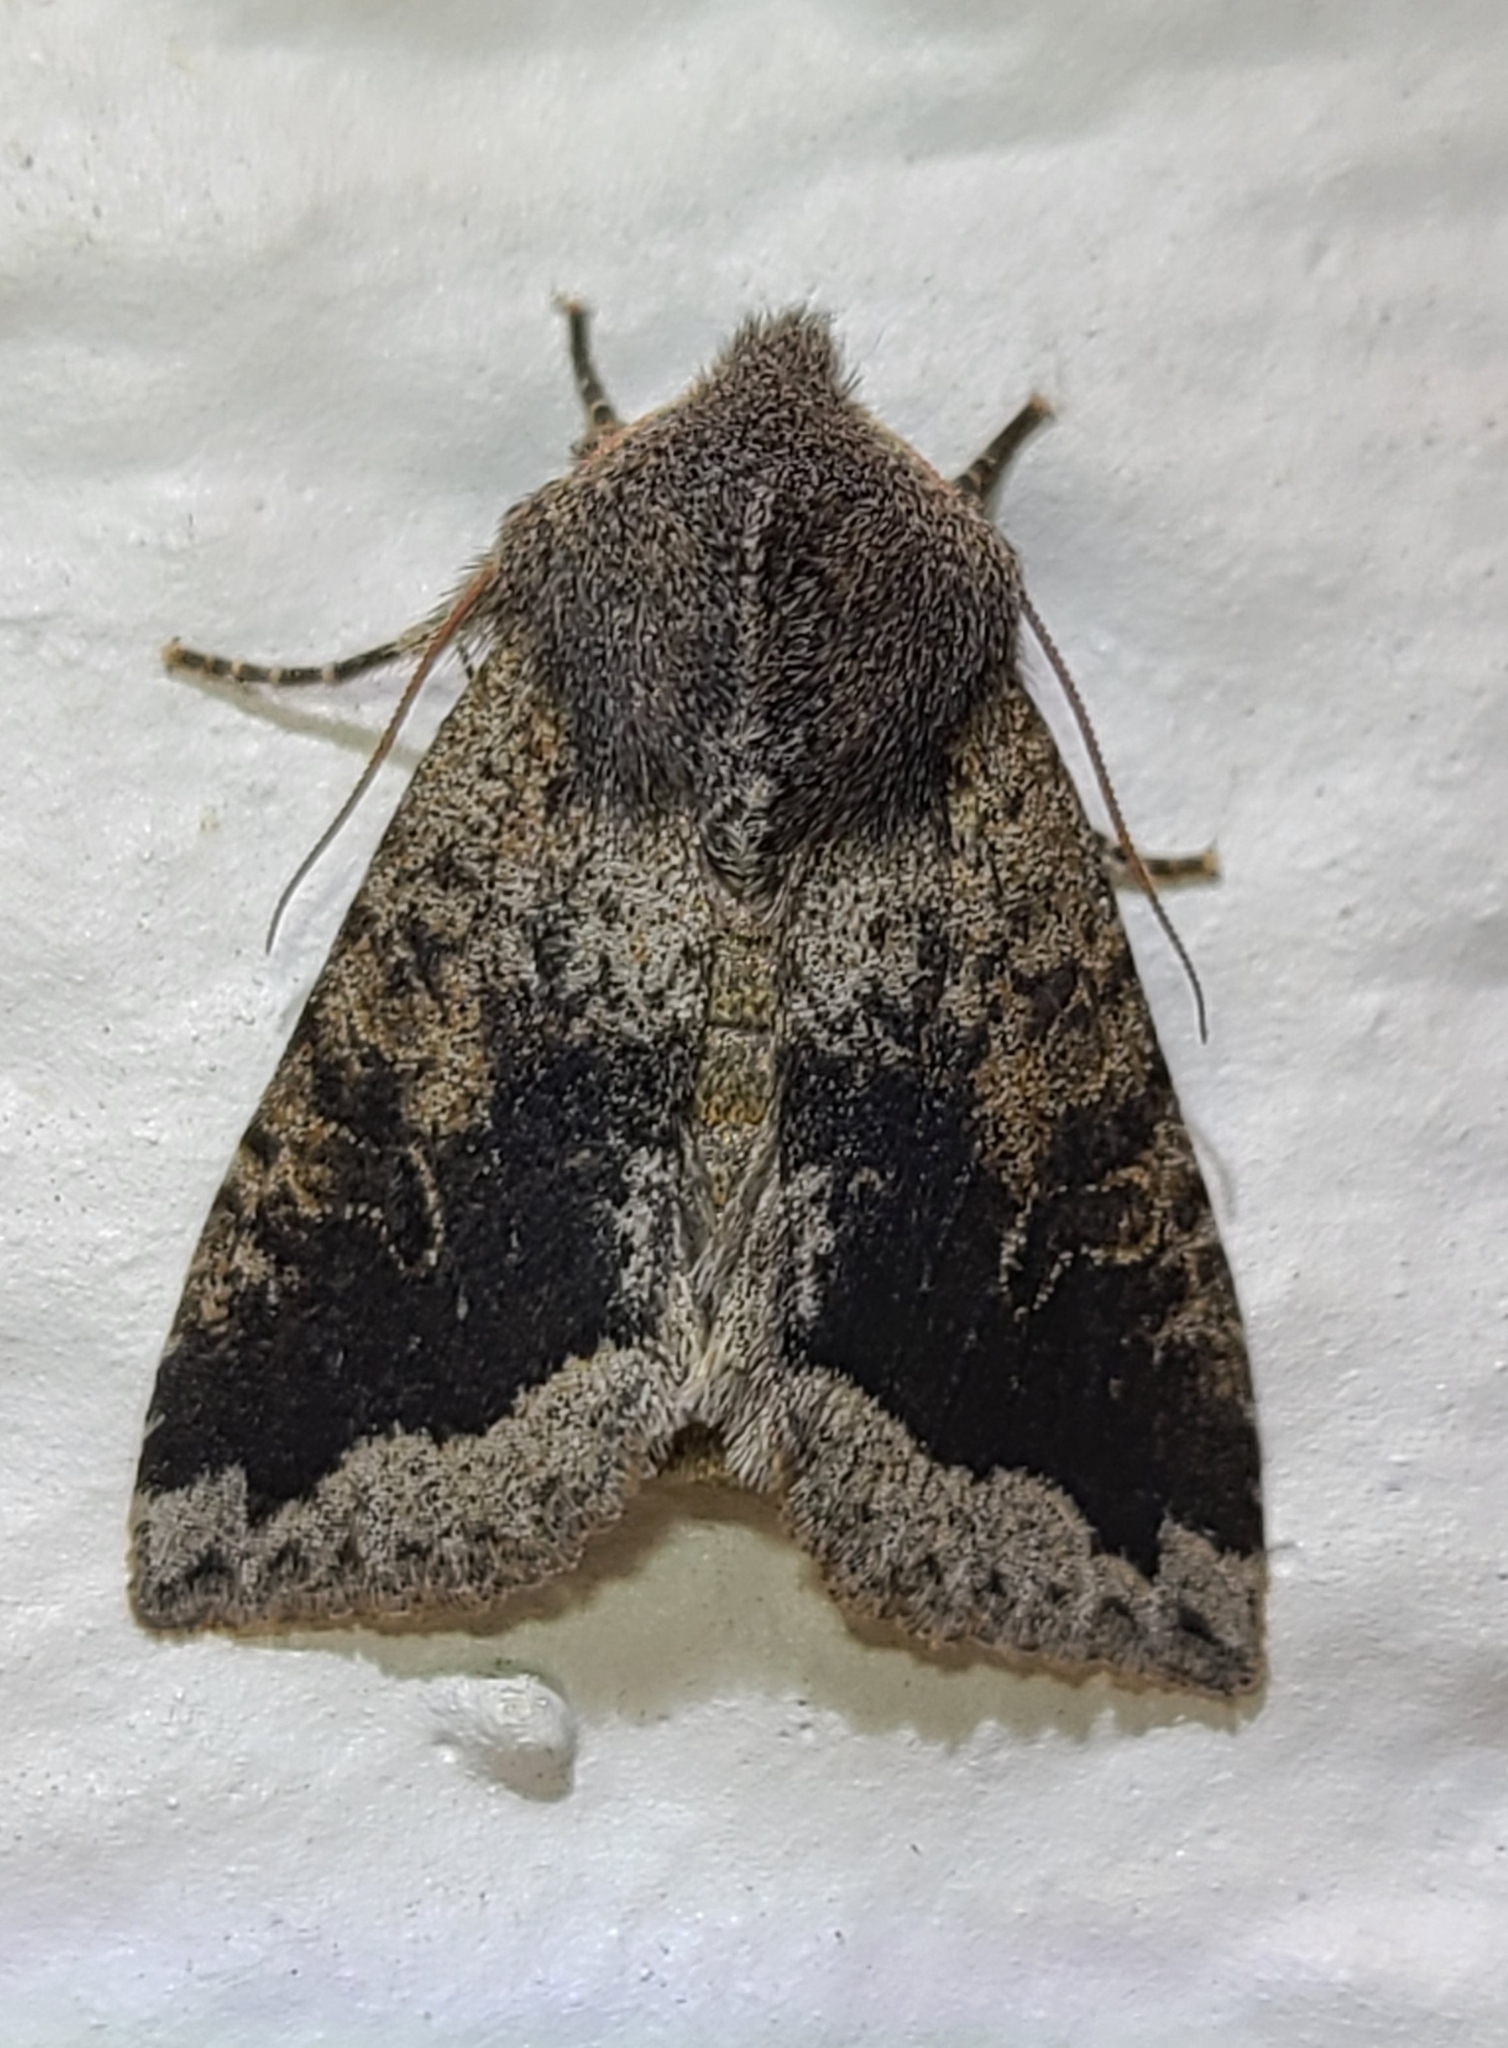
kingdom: Animalia
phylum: Arthropoda
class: Insecta
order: Lepidoptera
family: Noctuidae
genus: Orthosia
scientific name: Orthosia erythrolita
